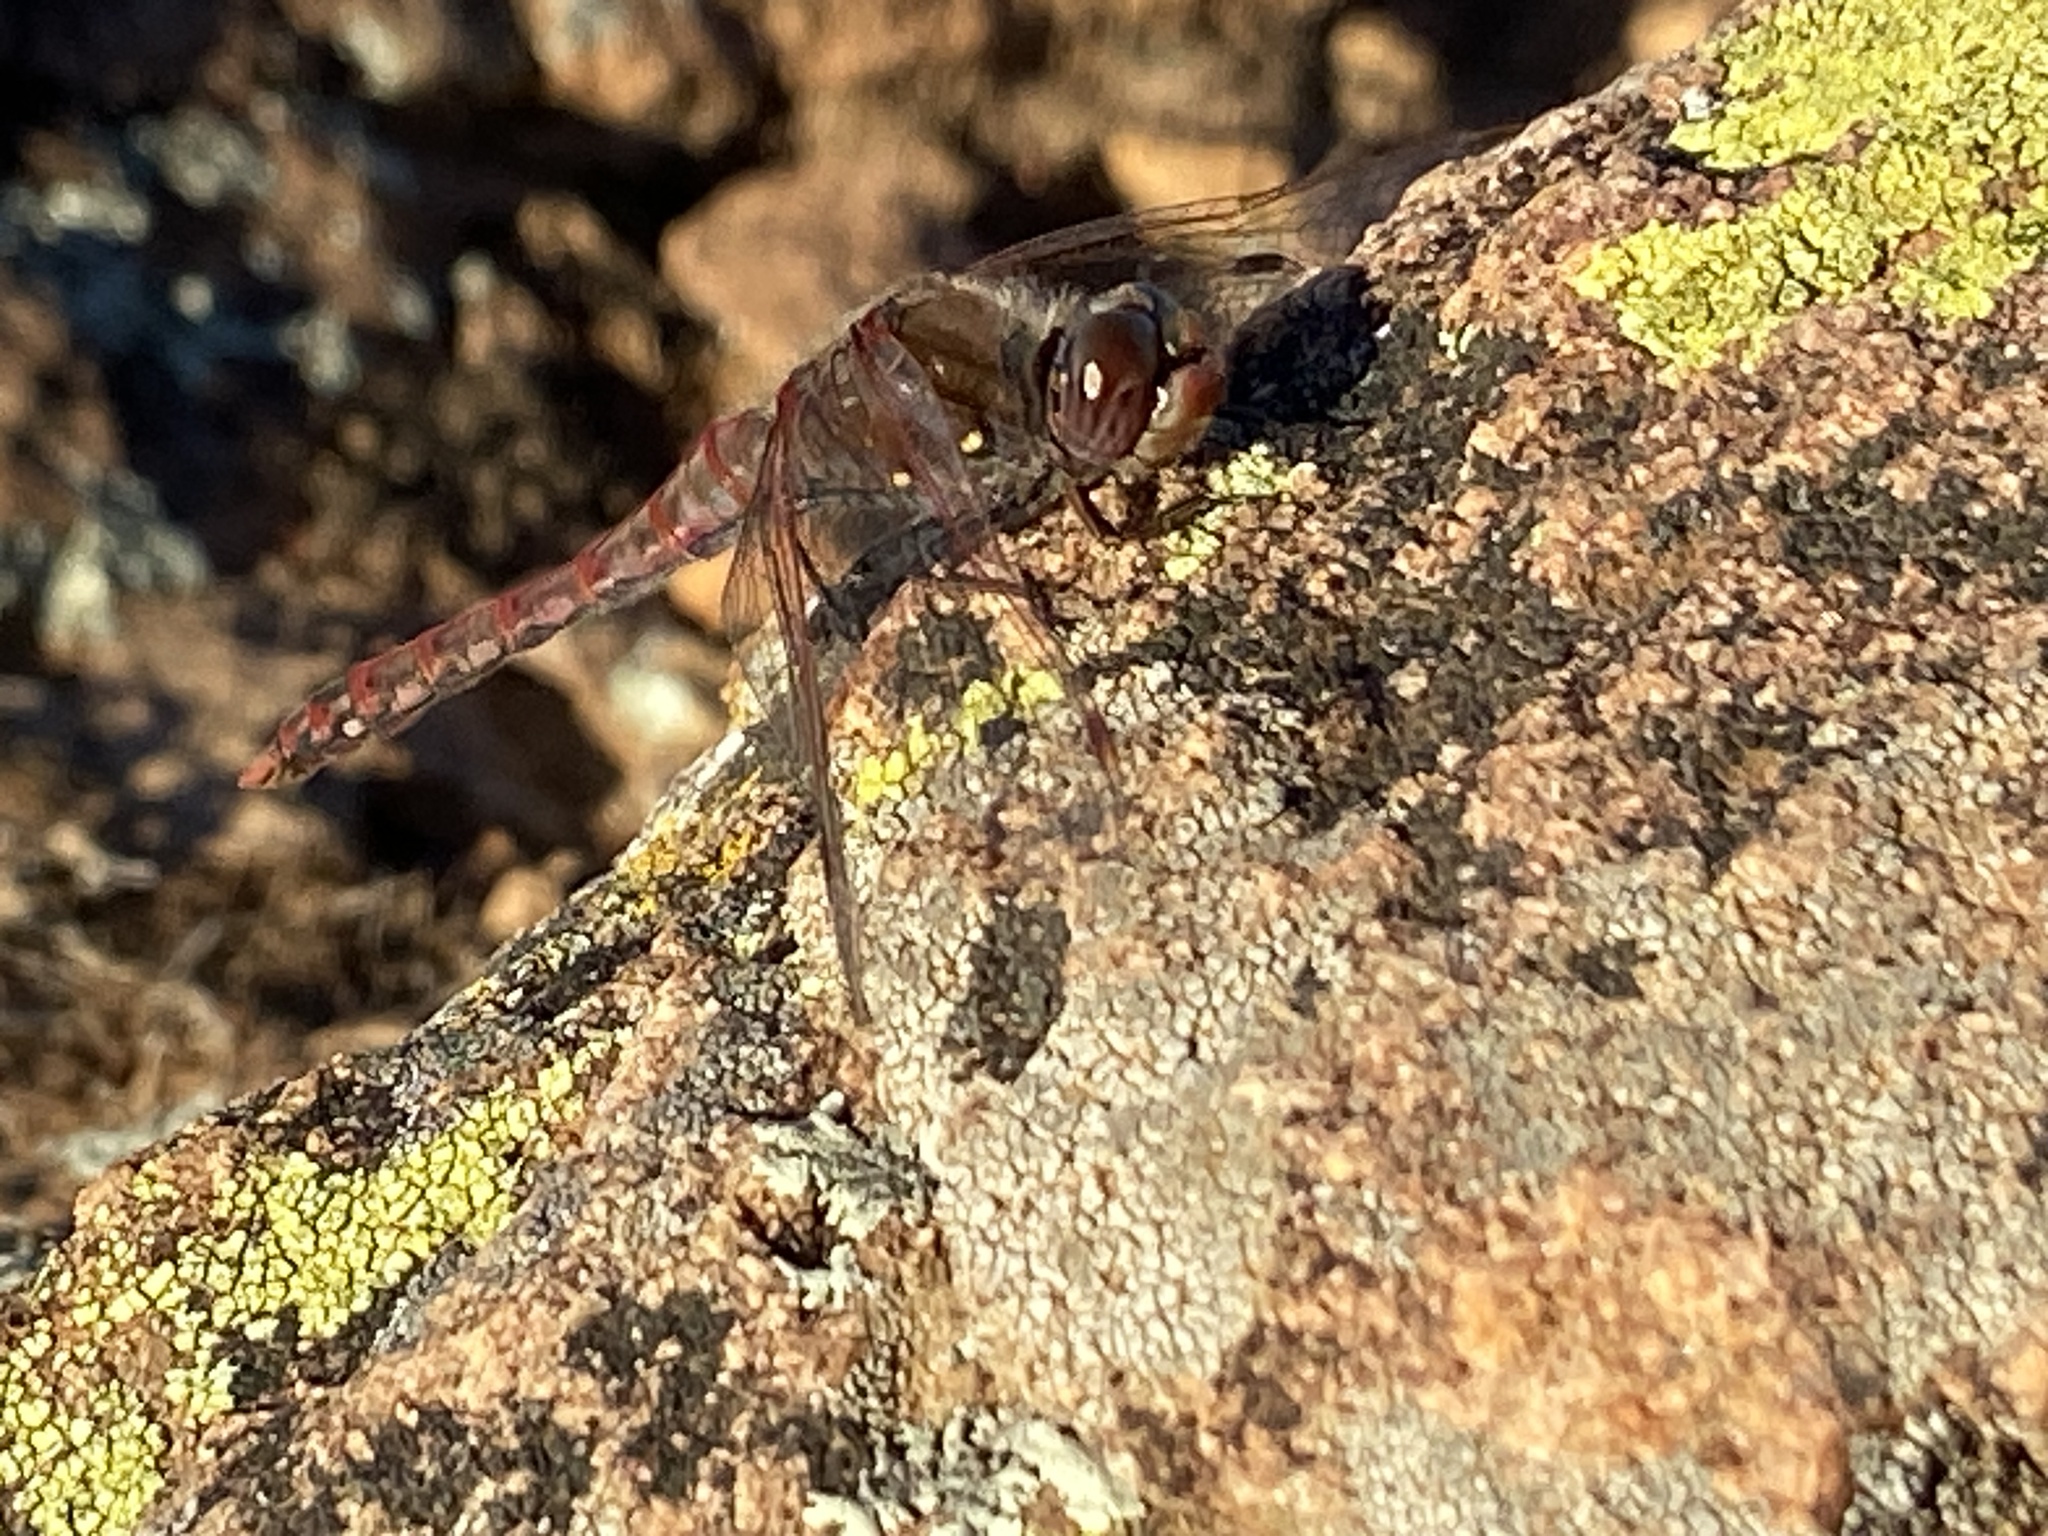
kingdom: Animalia
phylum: Arthropoda
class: Insecta
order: Odonata
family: Libellulidae
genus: Sympetrum
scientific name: Sympetrum corruptum
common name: Variegated meadowhawk
